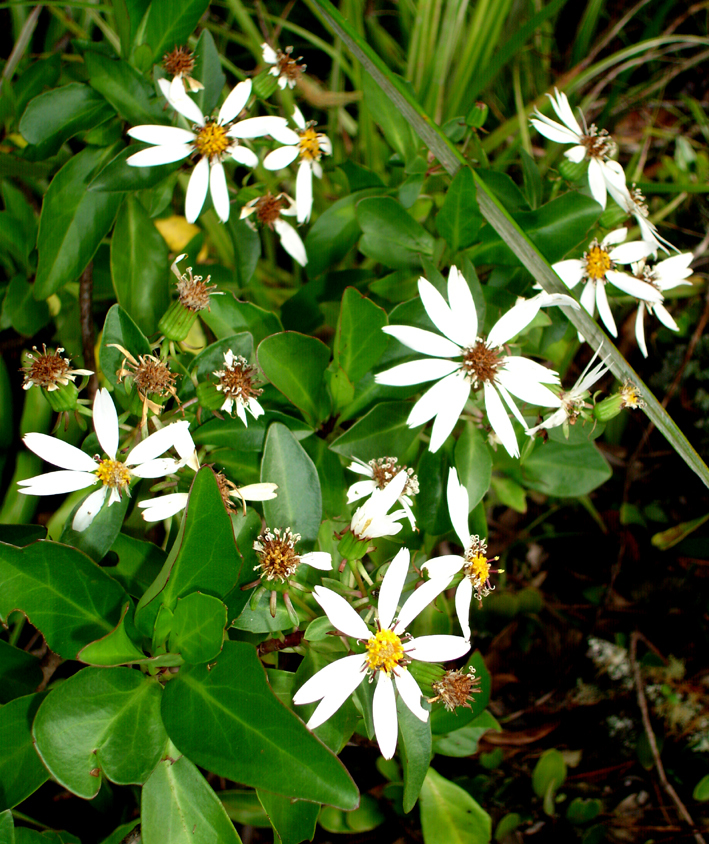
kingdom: Plantae
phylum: Tracheophyta
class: Magnoliopsida
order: Asterales
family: Asteraceae
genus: Brachyglottis
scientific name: Brachyglottis kirkii
